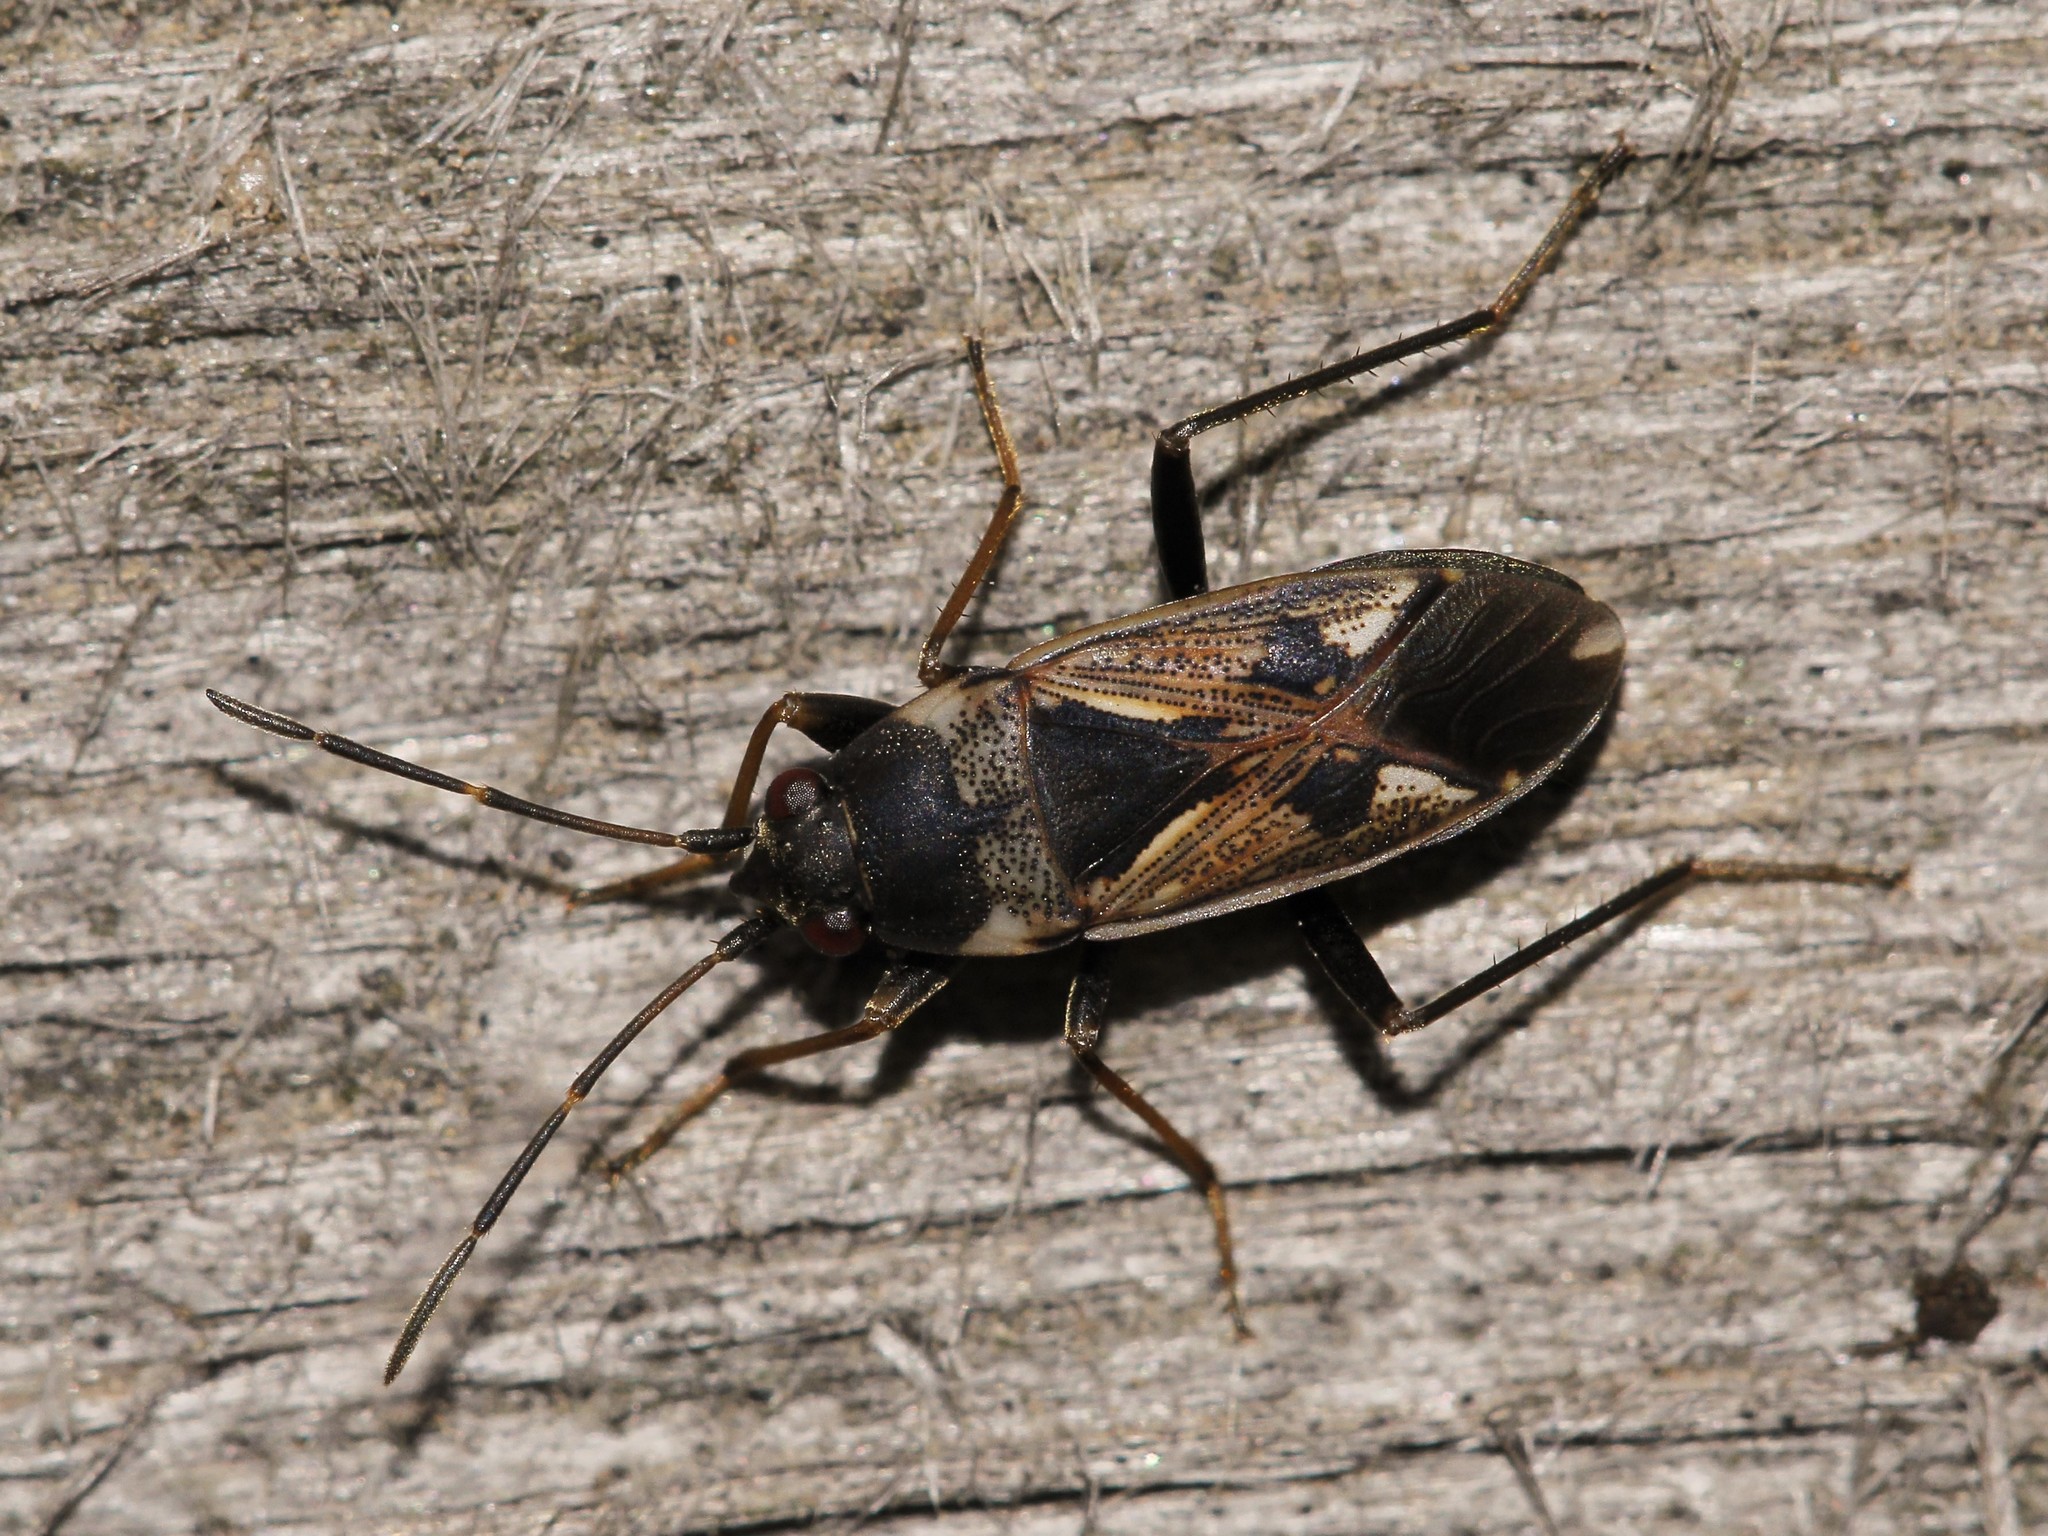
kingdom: Animalia
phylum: Arthropoda
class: Insecta
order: Hemiptera
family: Rhyparochromidae
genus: Rhyparochromus
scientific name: Rhyparochromus vulgaris
